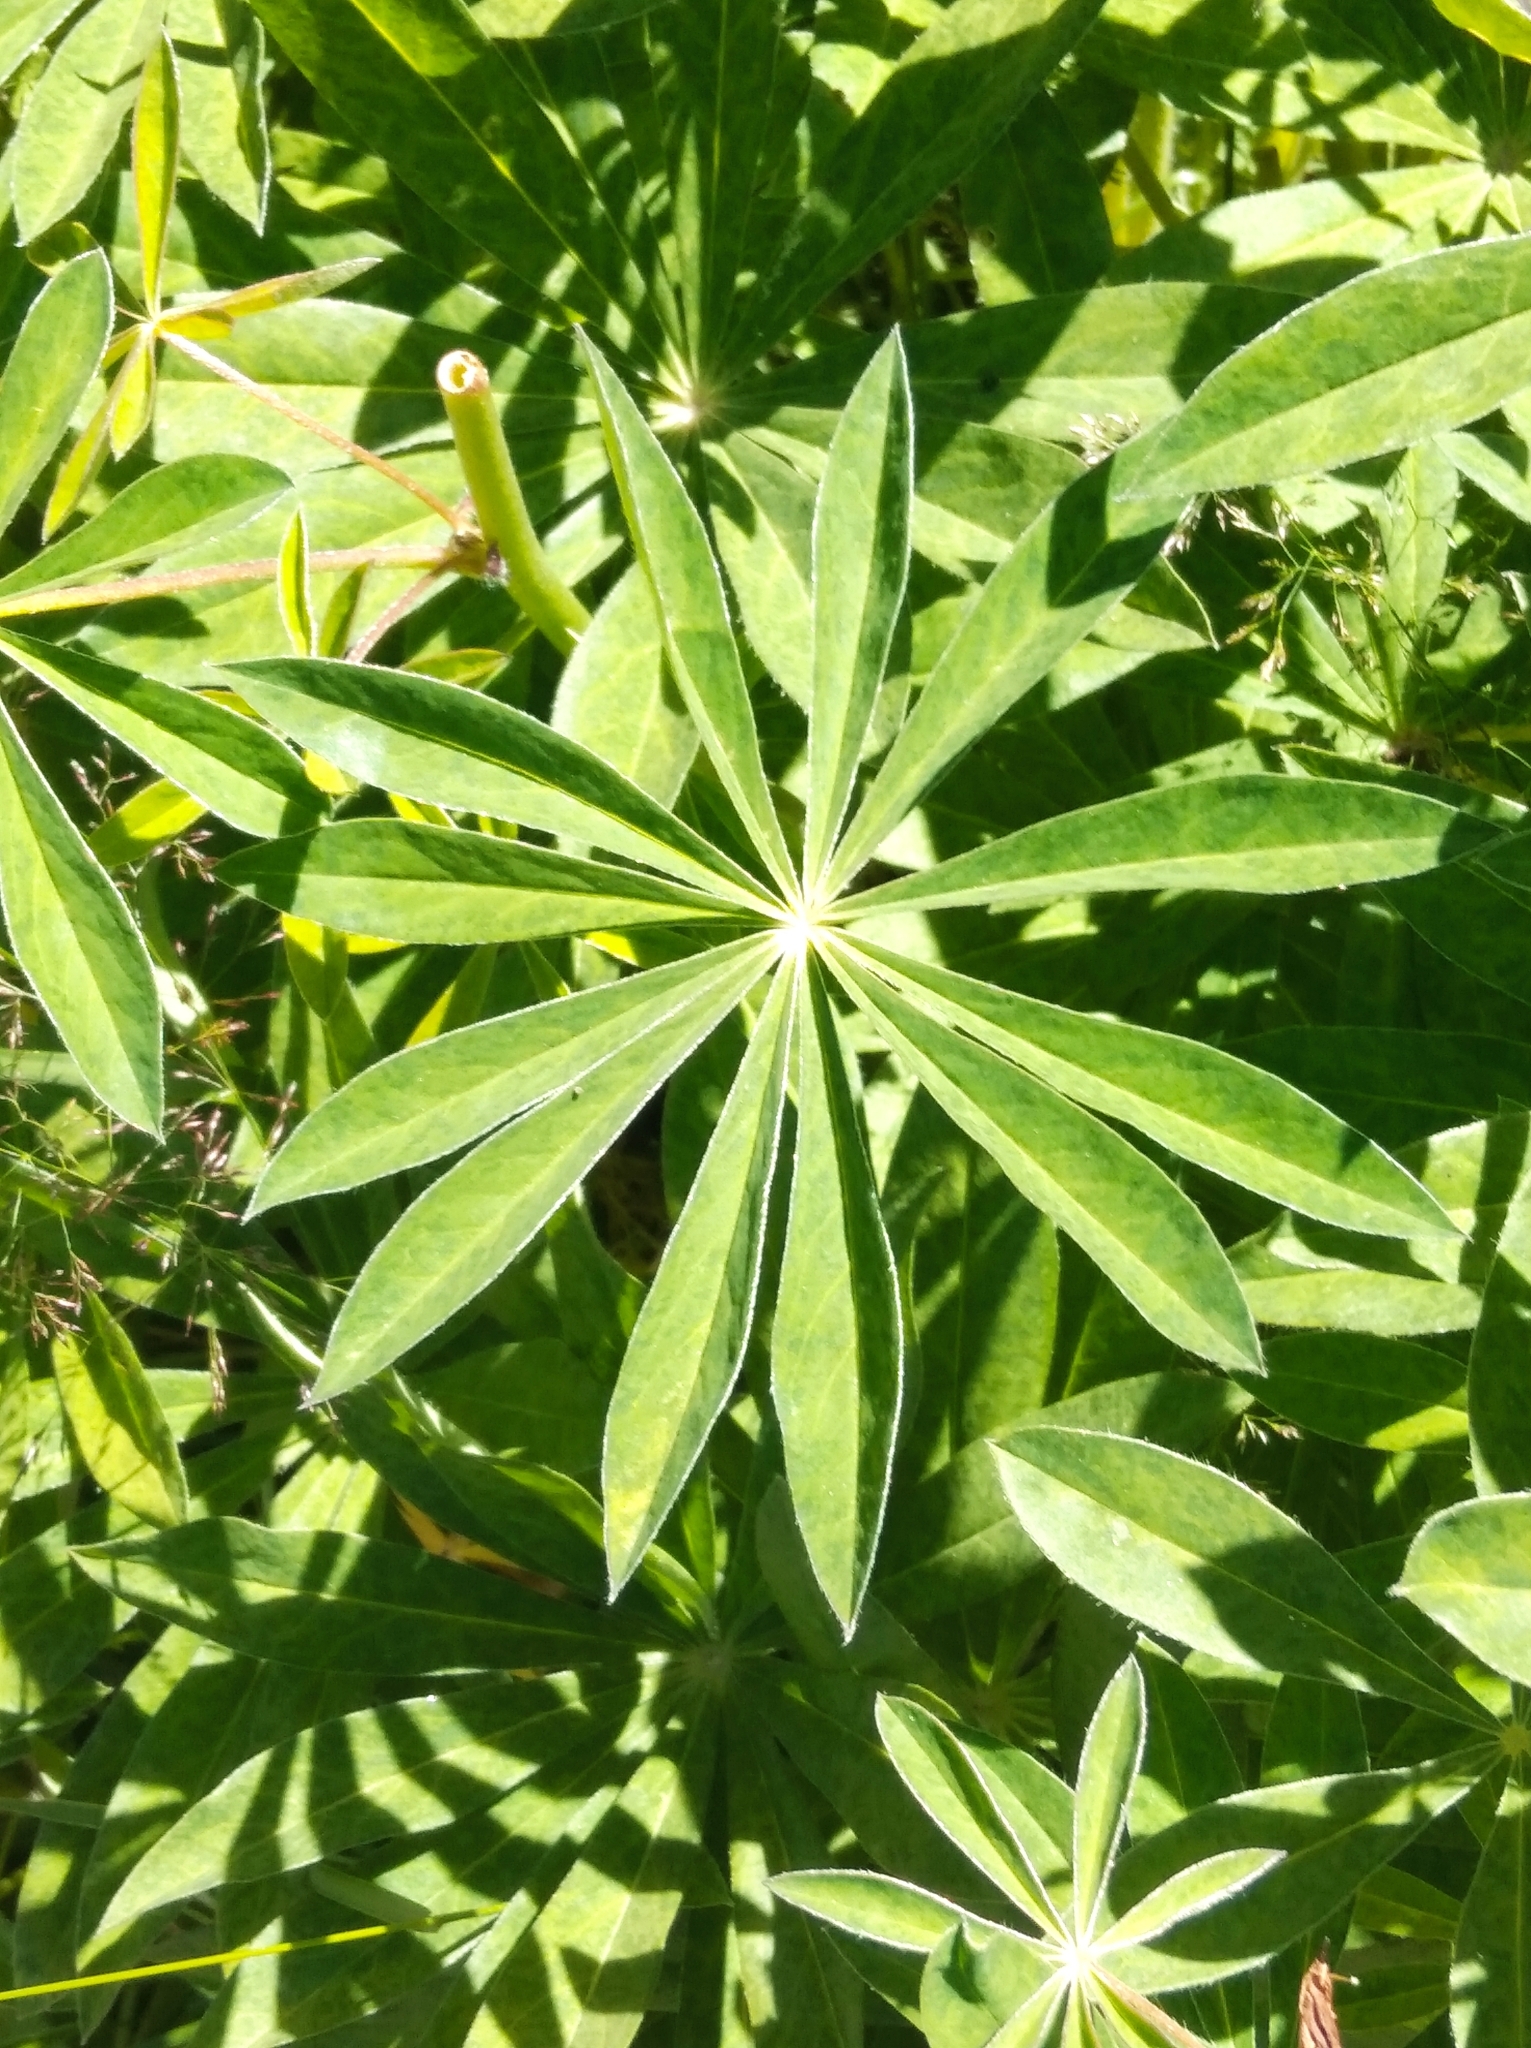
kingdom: Plantae
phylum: Tracheophyta
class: Magnoliopsida
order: Fabales
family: Fabaceae
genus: Lupinus
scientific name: Lupinus polyphyllus
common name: Garden lupin
